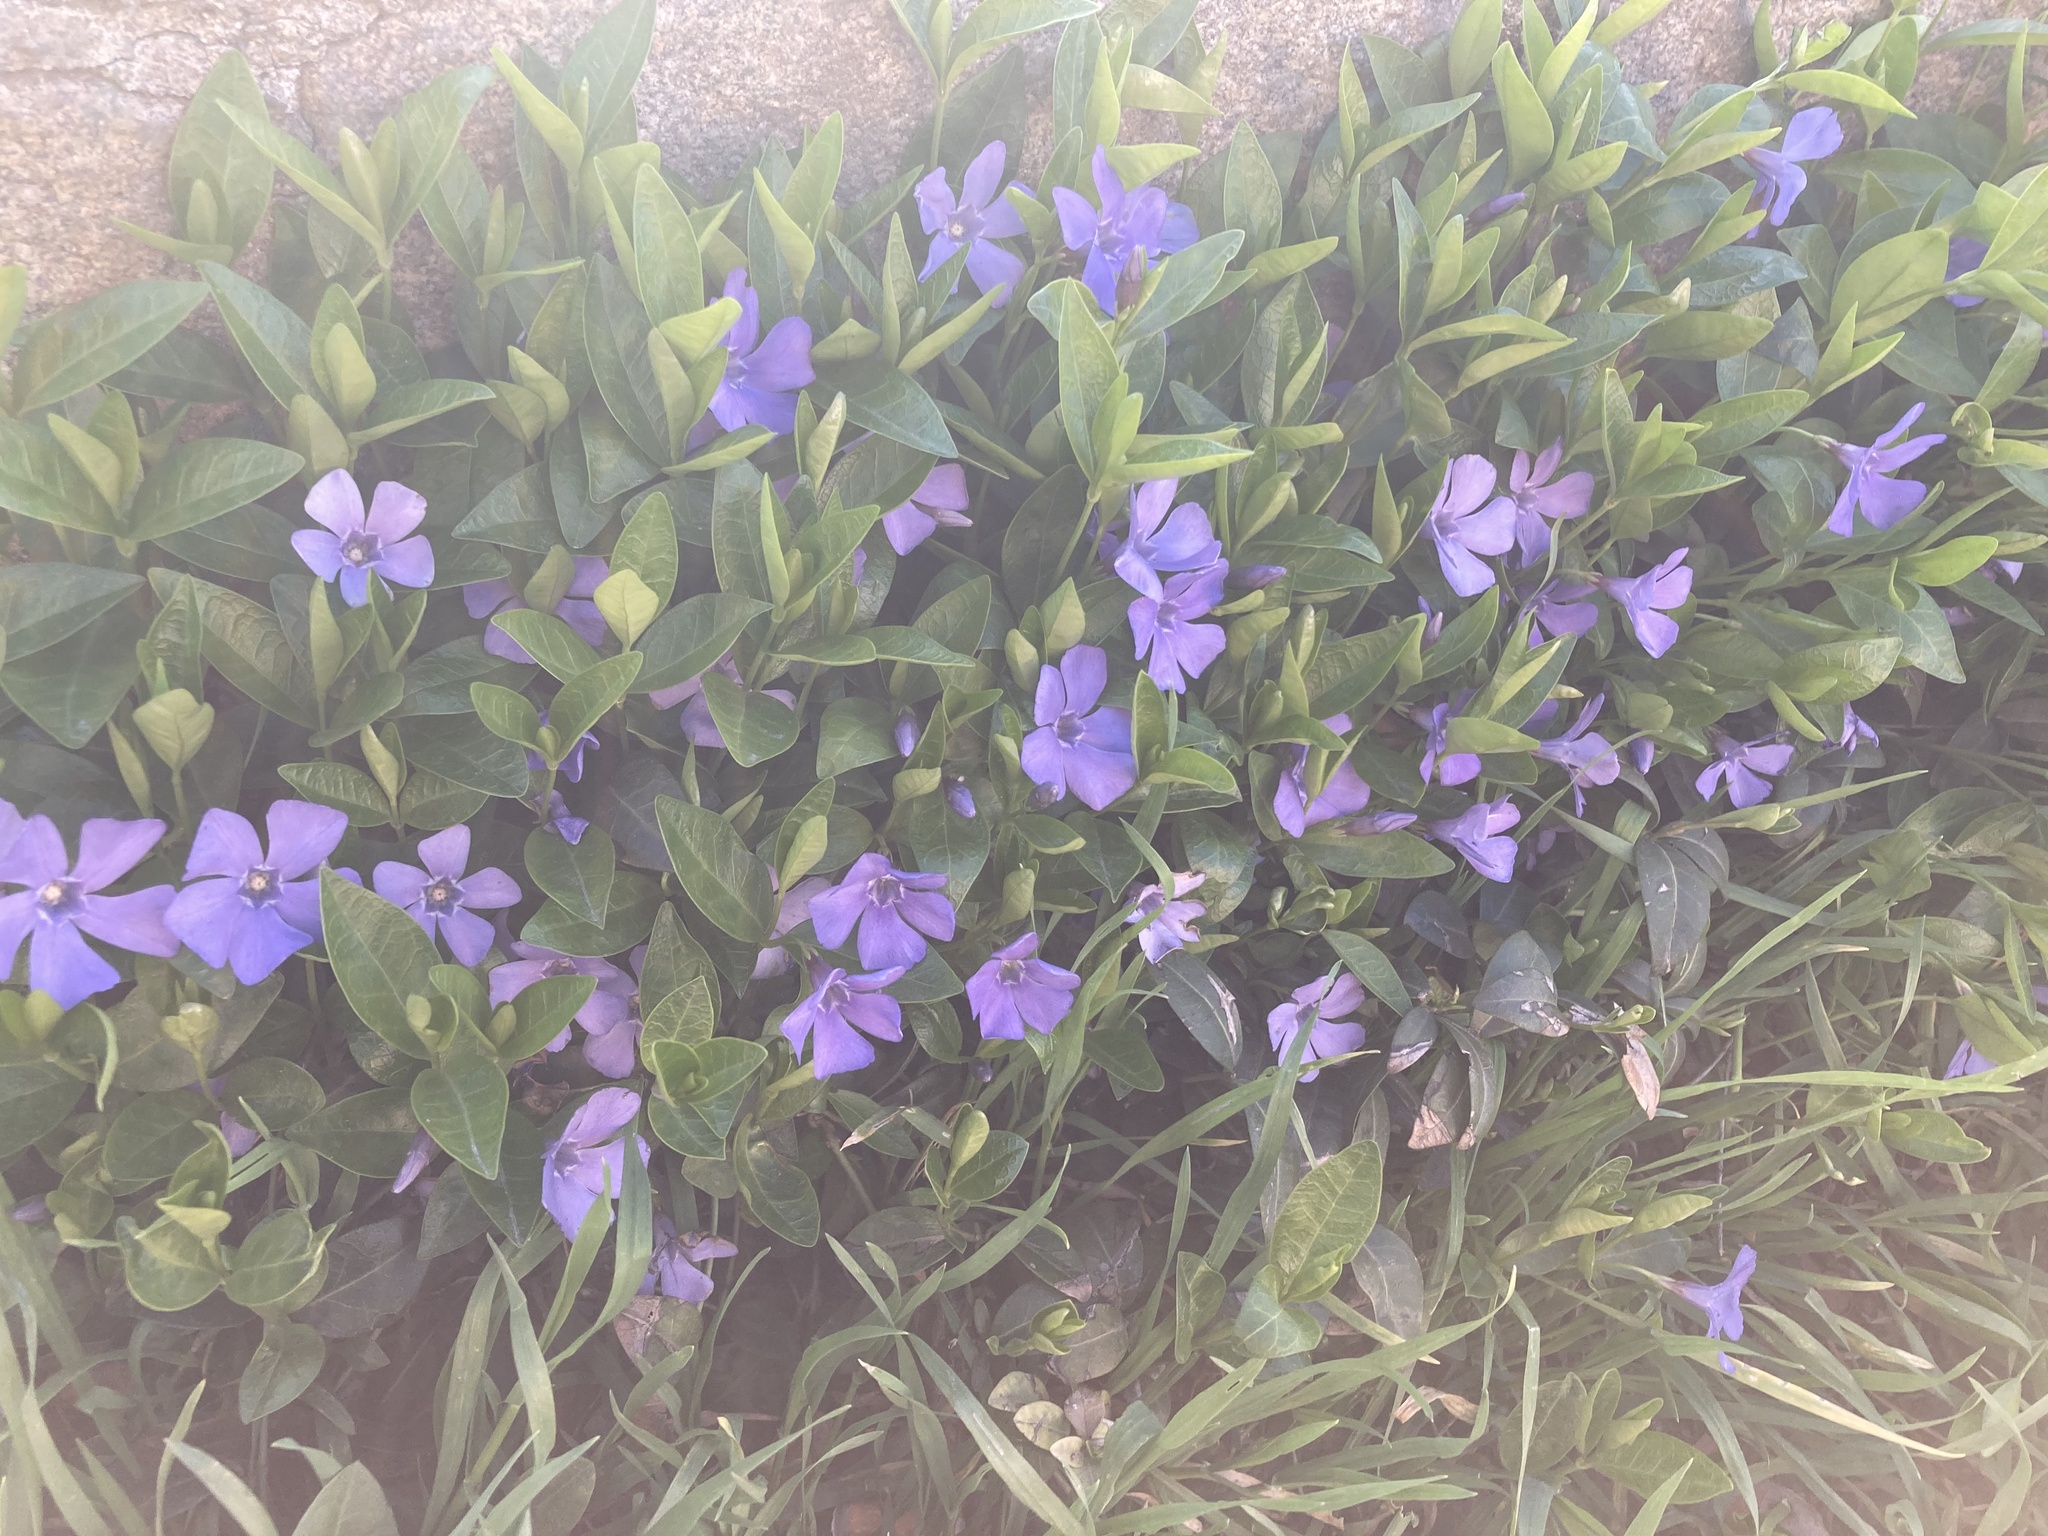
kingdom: Plantae
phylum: Tracheophyta
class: Magnoliopsida
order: Gentianales
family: Apocynaceae
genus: Vinca
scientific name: Vinca minor
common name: Lesser periwinkle
